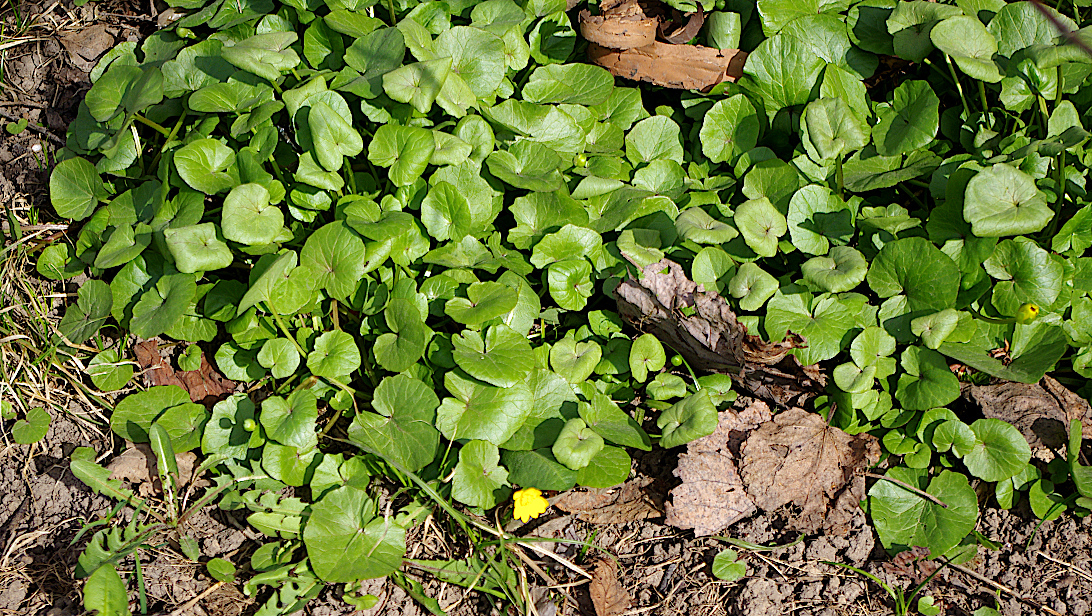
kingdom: Plantae
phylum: Tracheophyta
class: Magnoliopsida
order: Ranunculales
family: Ranunculaceae
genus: Ficaria
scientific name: Ficaria verna
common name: Lesser celandine
